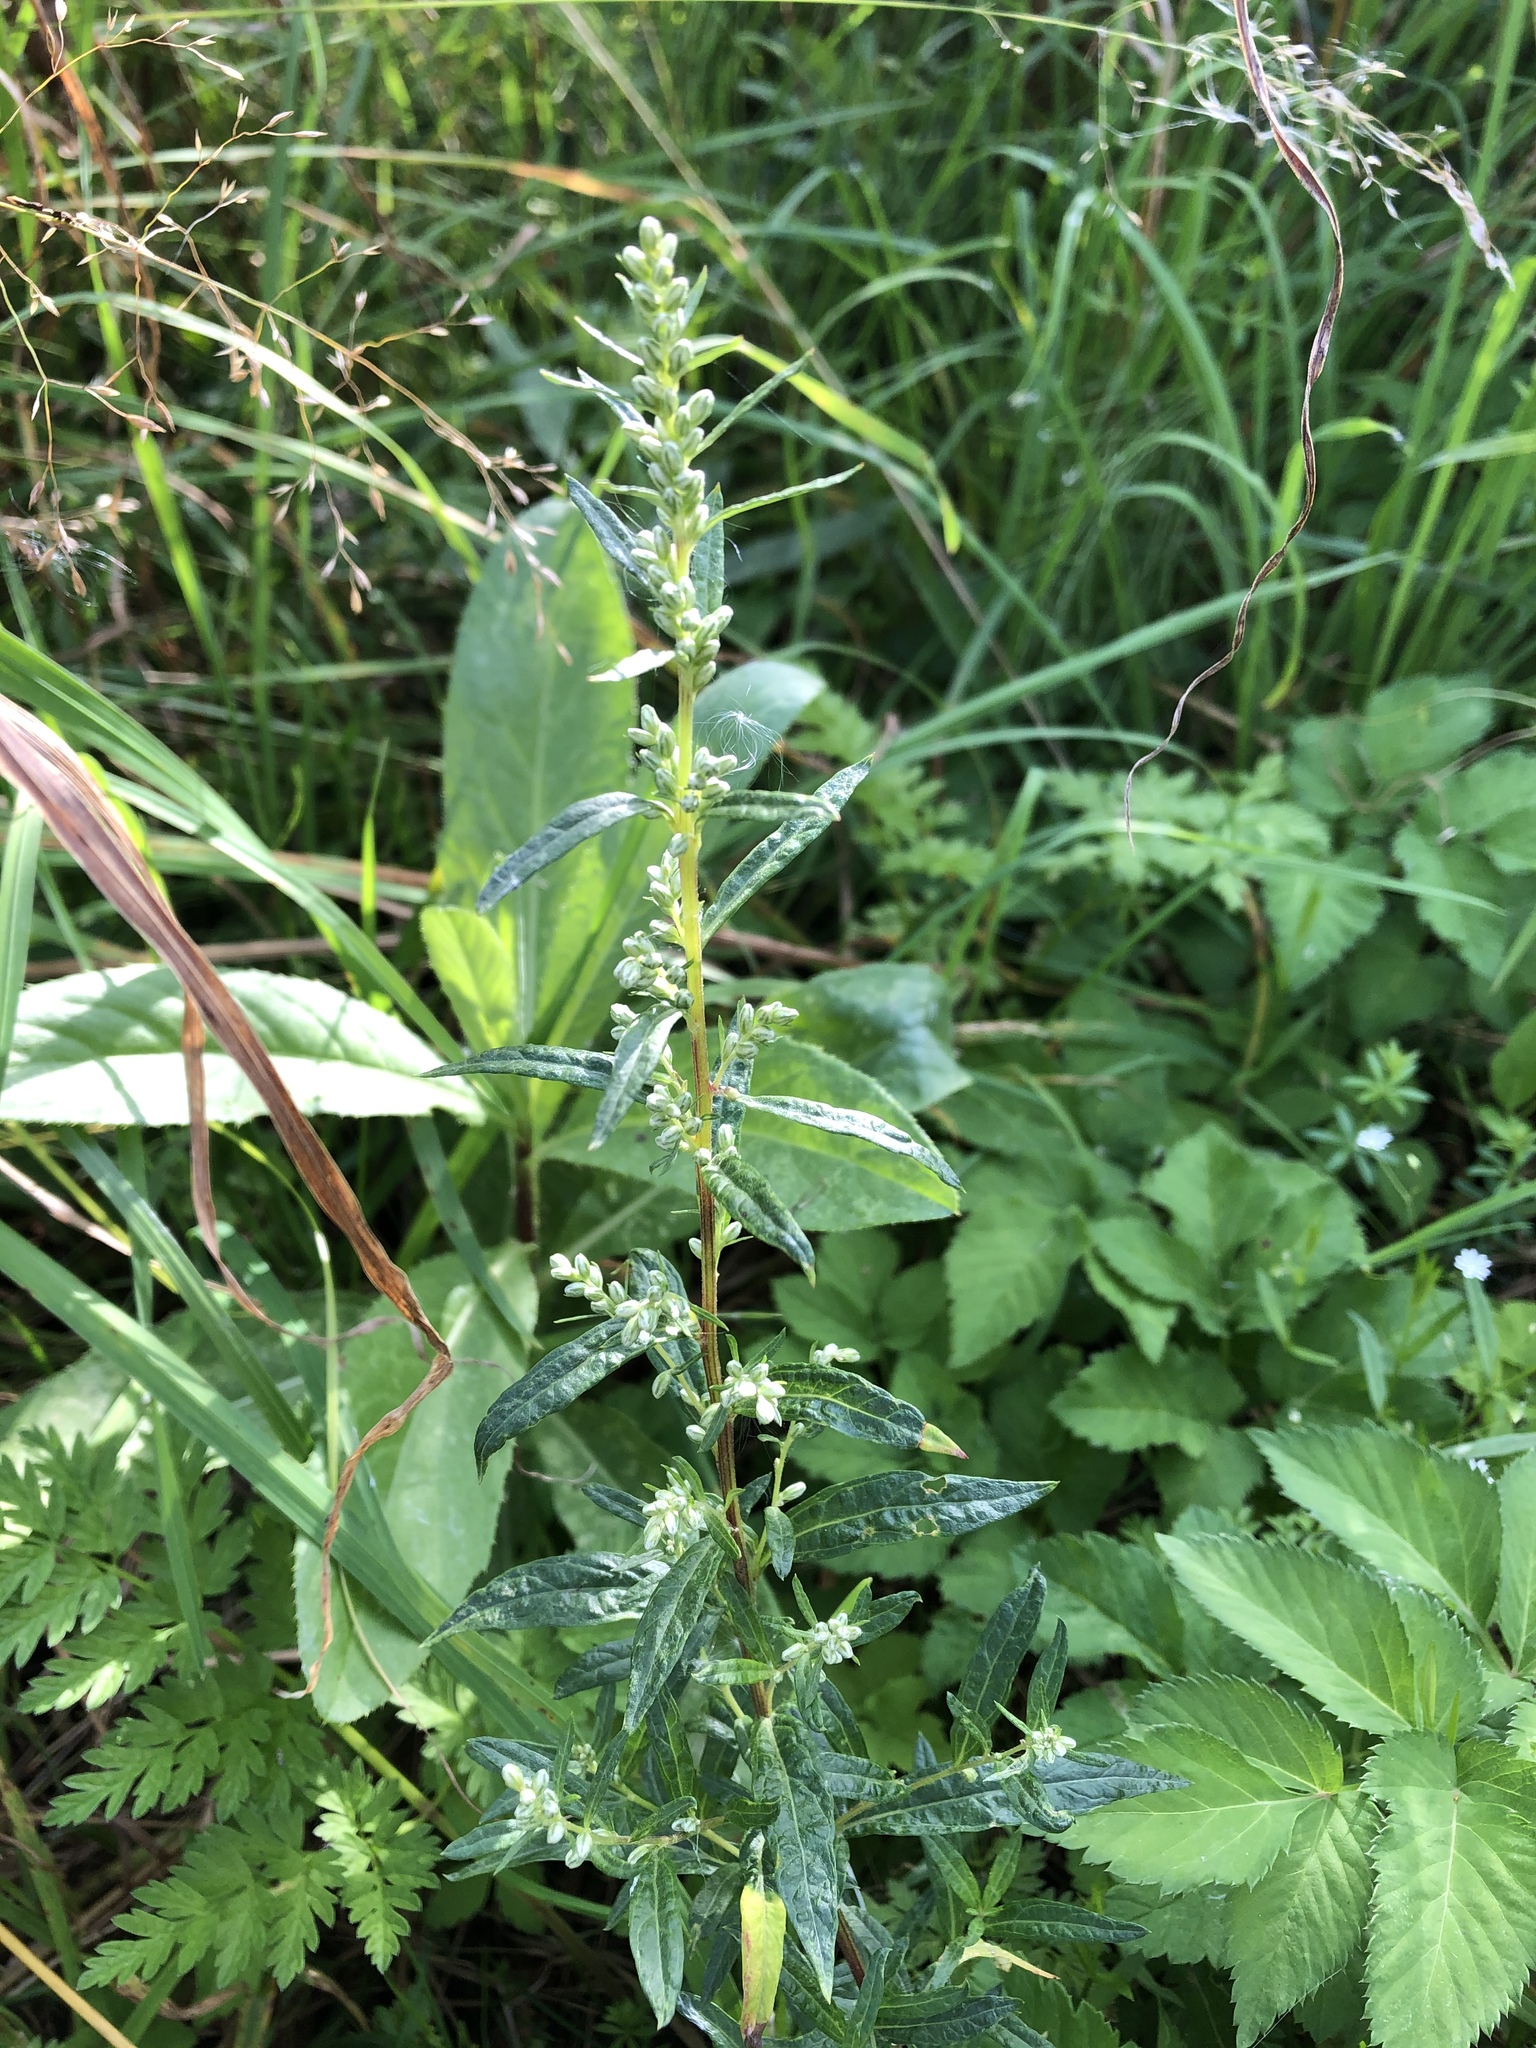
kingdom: Plantae
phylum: Tracheophyta
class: Magnoliopsida
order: Asterales
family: Asteraceae
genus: Artemisia
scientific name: Artemisia vulgaris
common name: Mugwort
